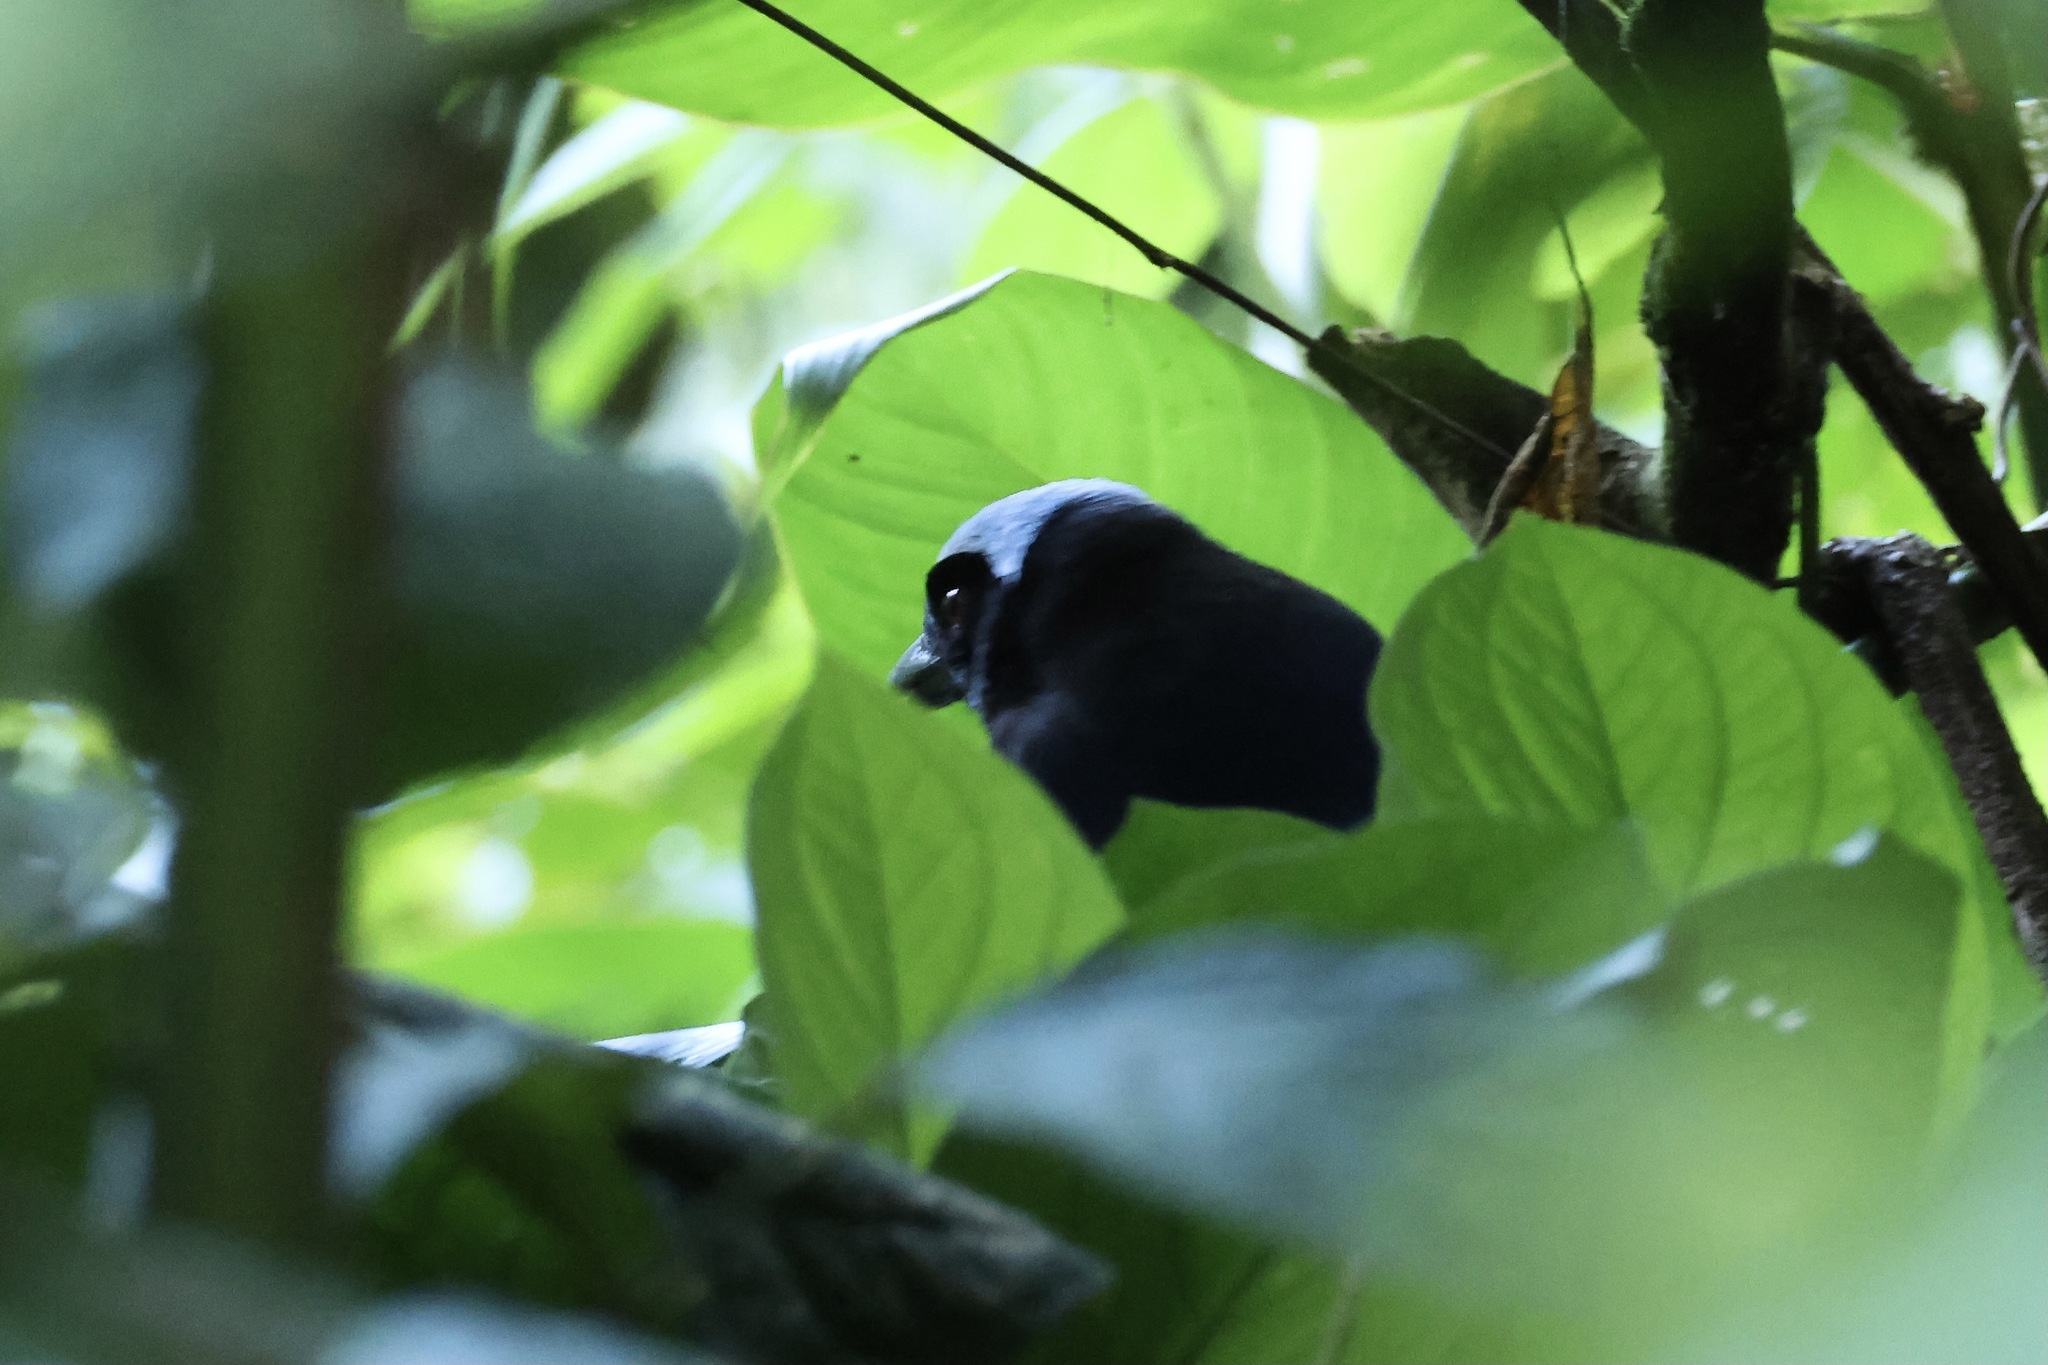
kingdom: Animalia
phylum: Chordata
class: Aves
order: Passeriformes
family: Corvidae
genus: Cyanolyca
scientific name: Cyanolyca cucullata
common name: Azure-hooded jay
